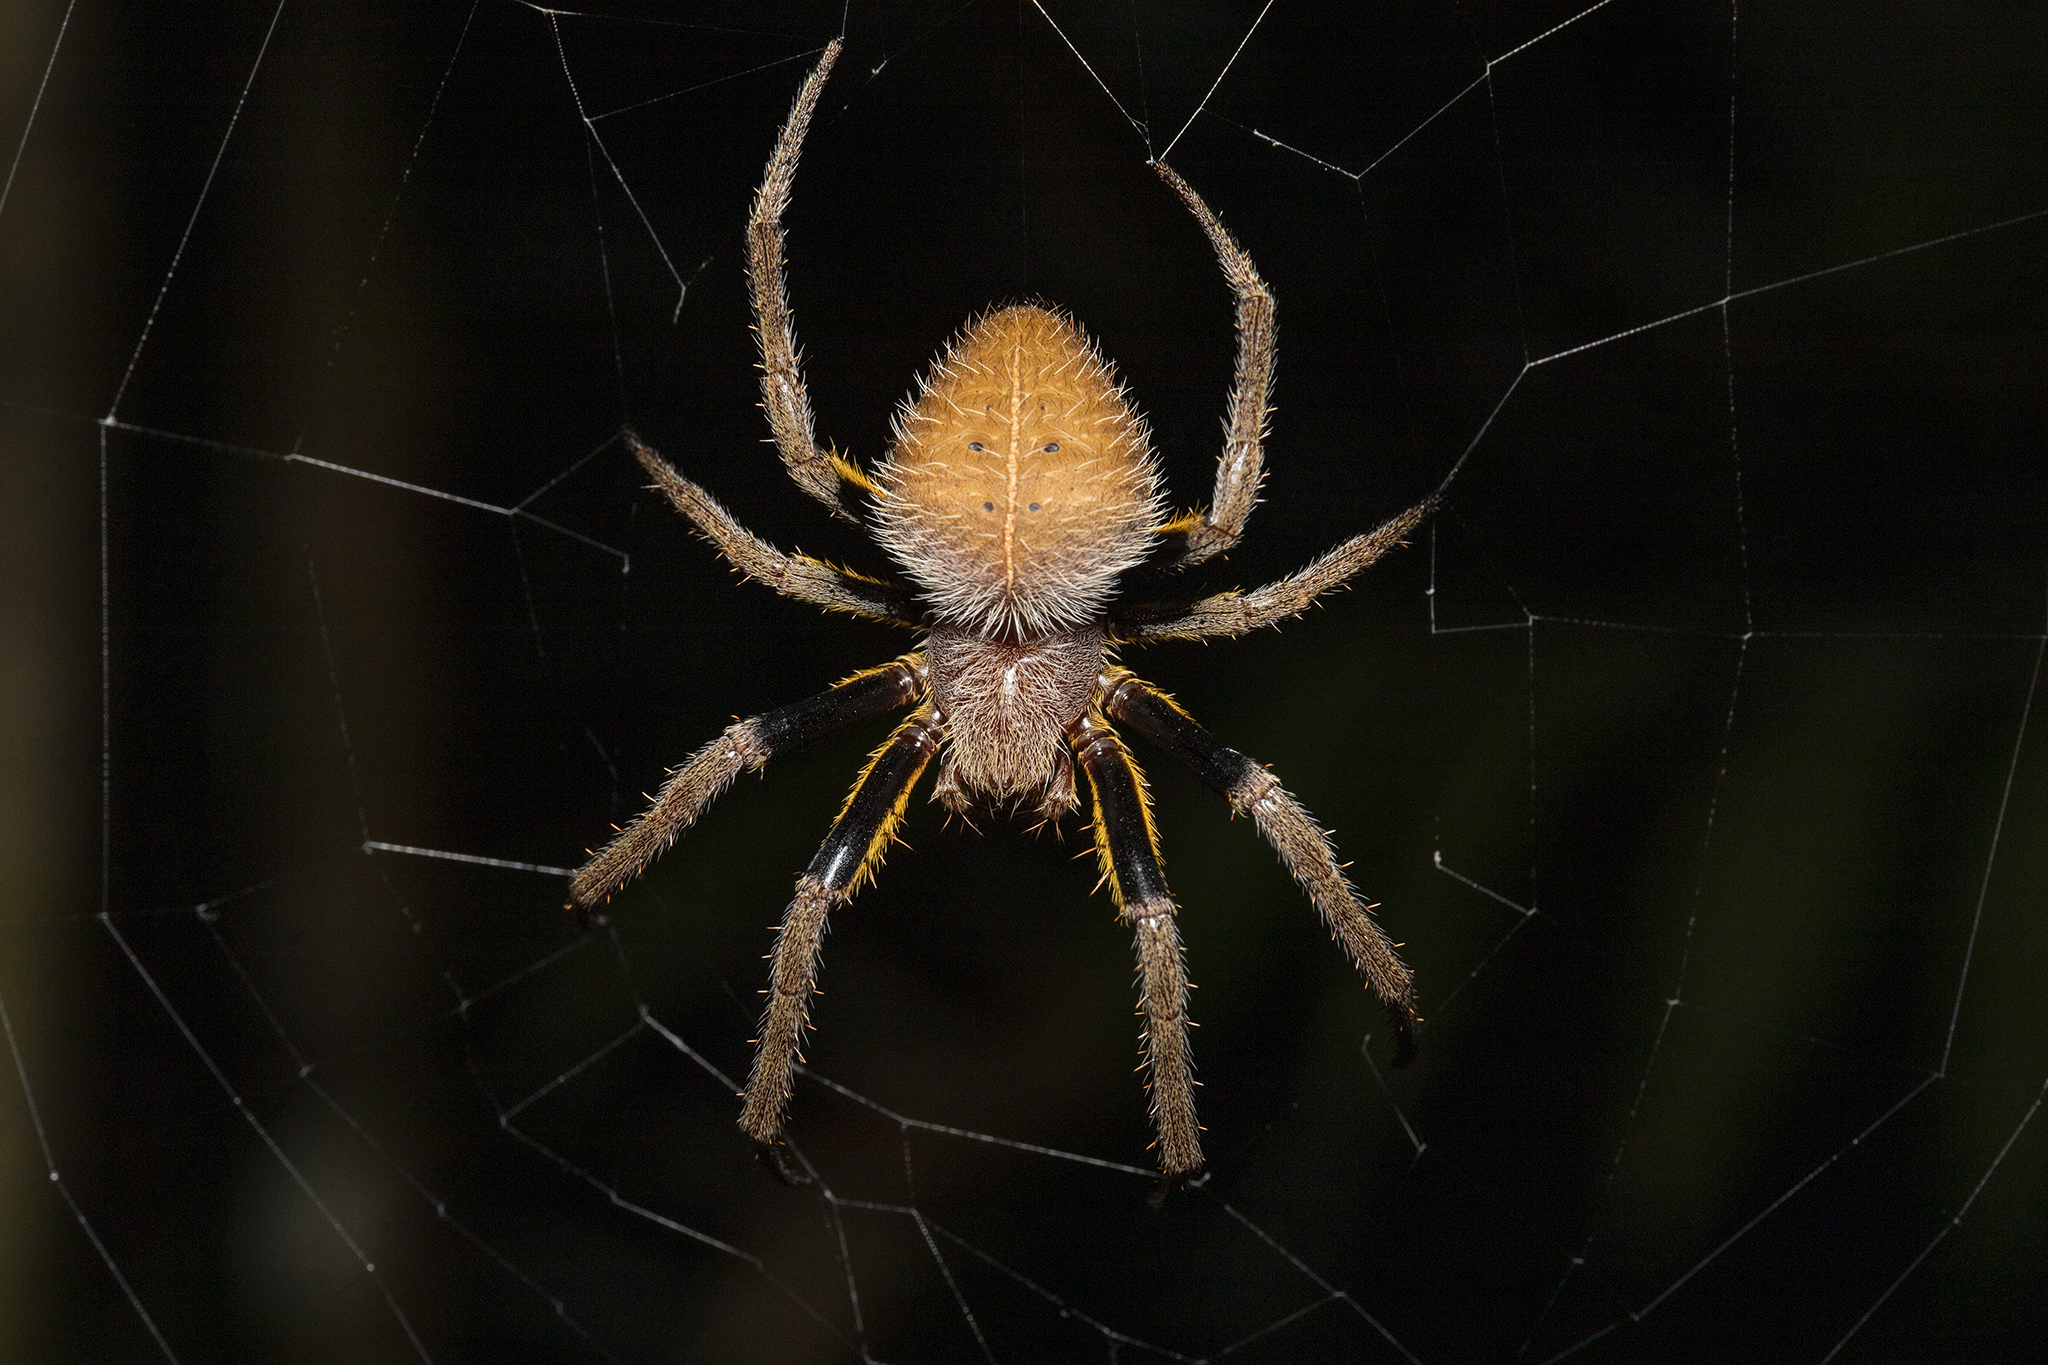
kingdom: Animalia
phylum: Arthropoda
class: Arachnida
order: Araneae
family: Araneidae
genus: Eriophora
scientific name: Eriophora fuliginea
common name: Orb weavers
